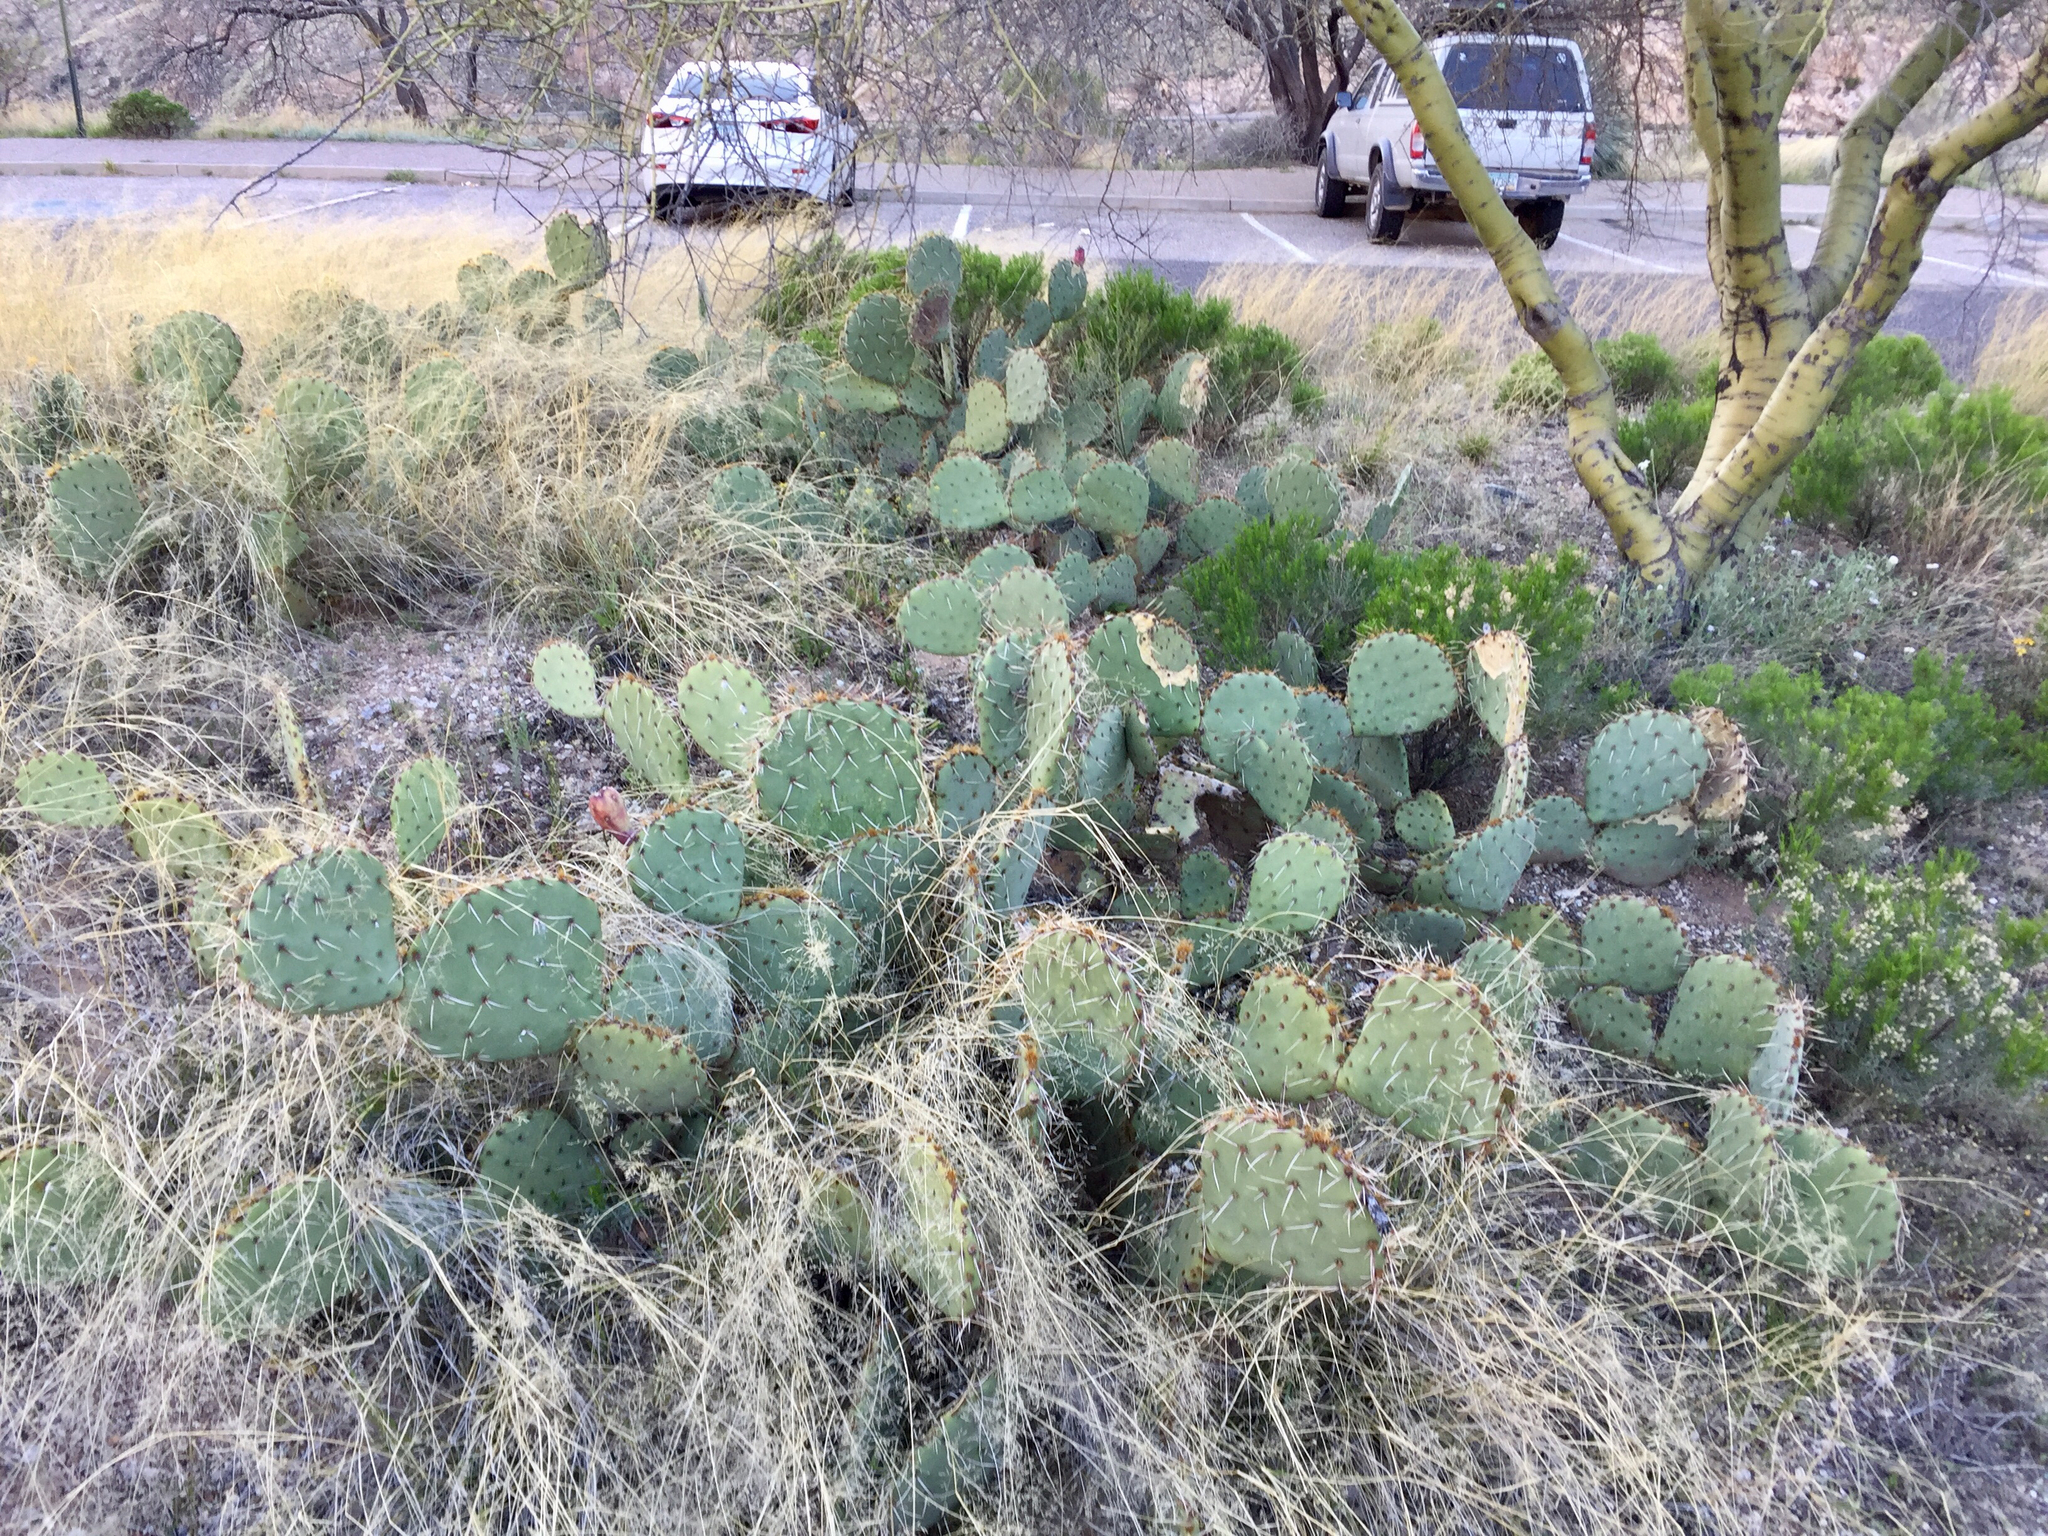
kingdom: Plantae
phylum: Tracheophyta
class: Magnoliopsida
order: Caryophyllales
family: Cactaceae
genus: Opuntia
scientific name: Opuntia engelmannii
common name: Cactus-apple
